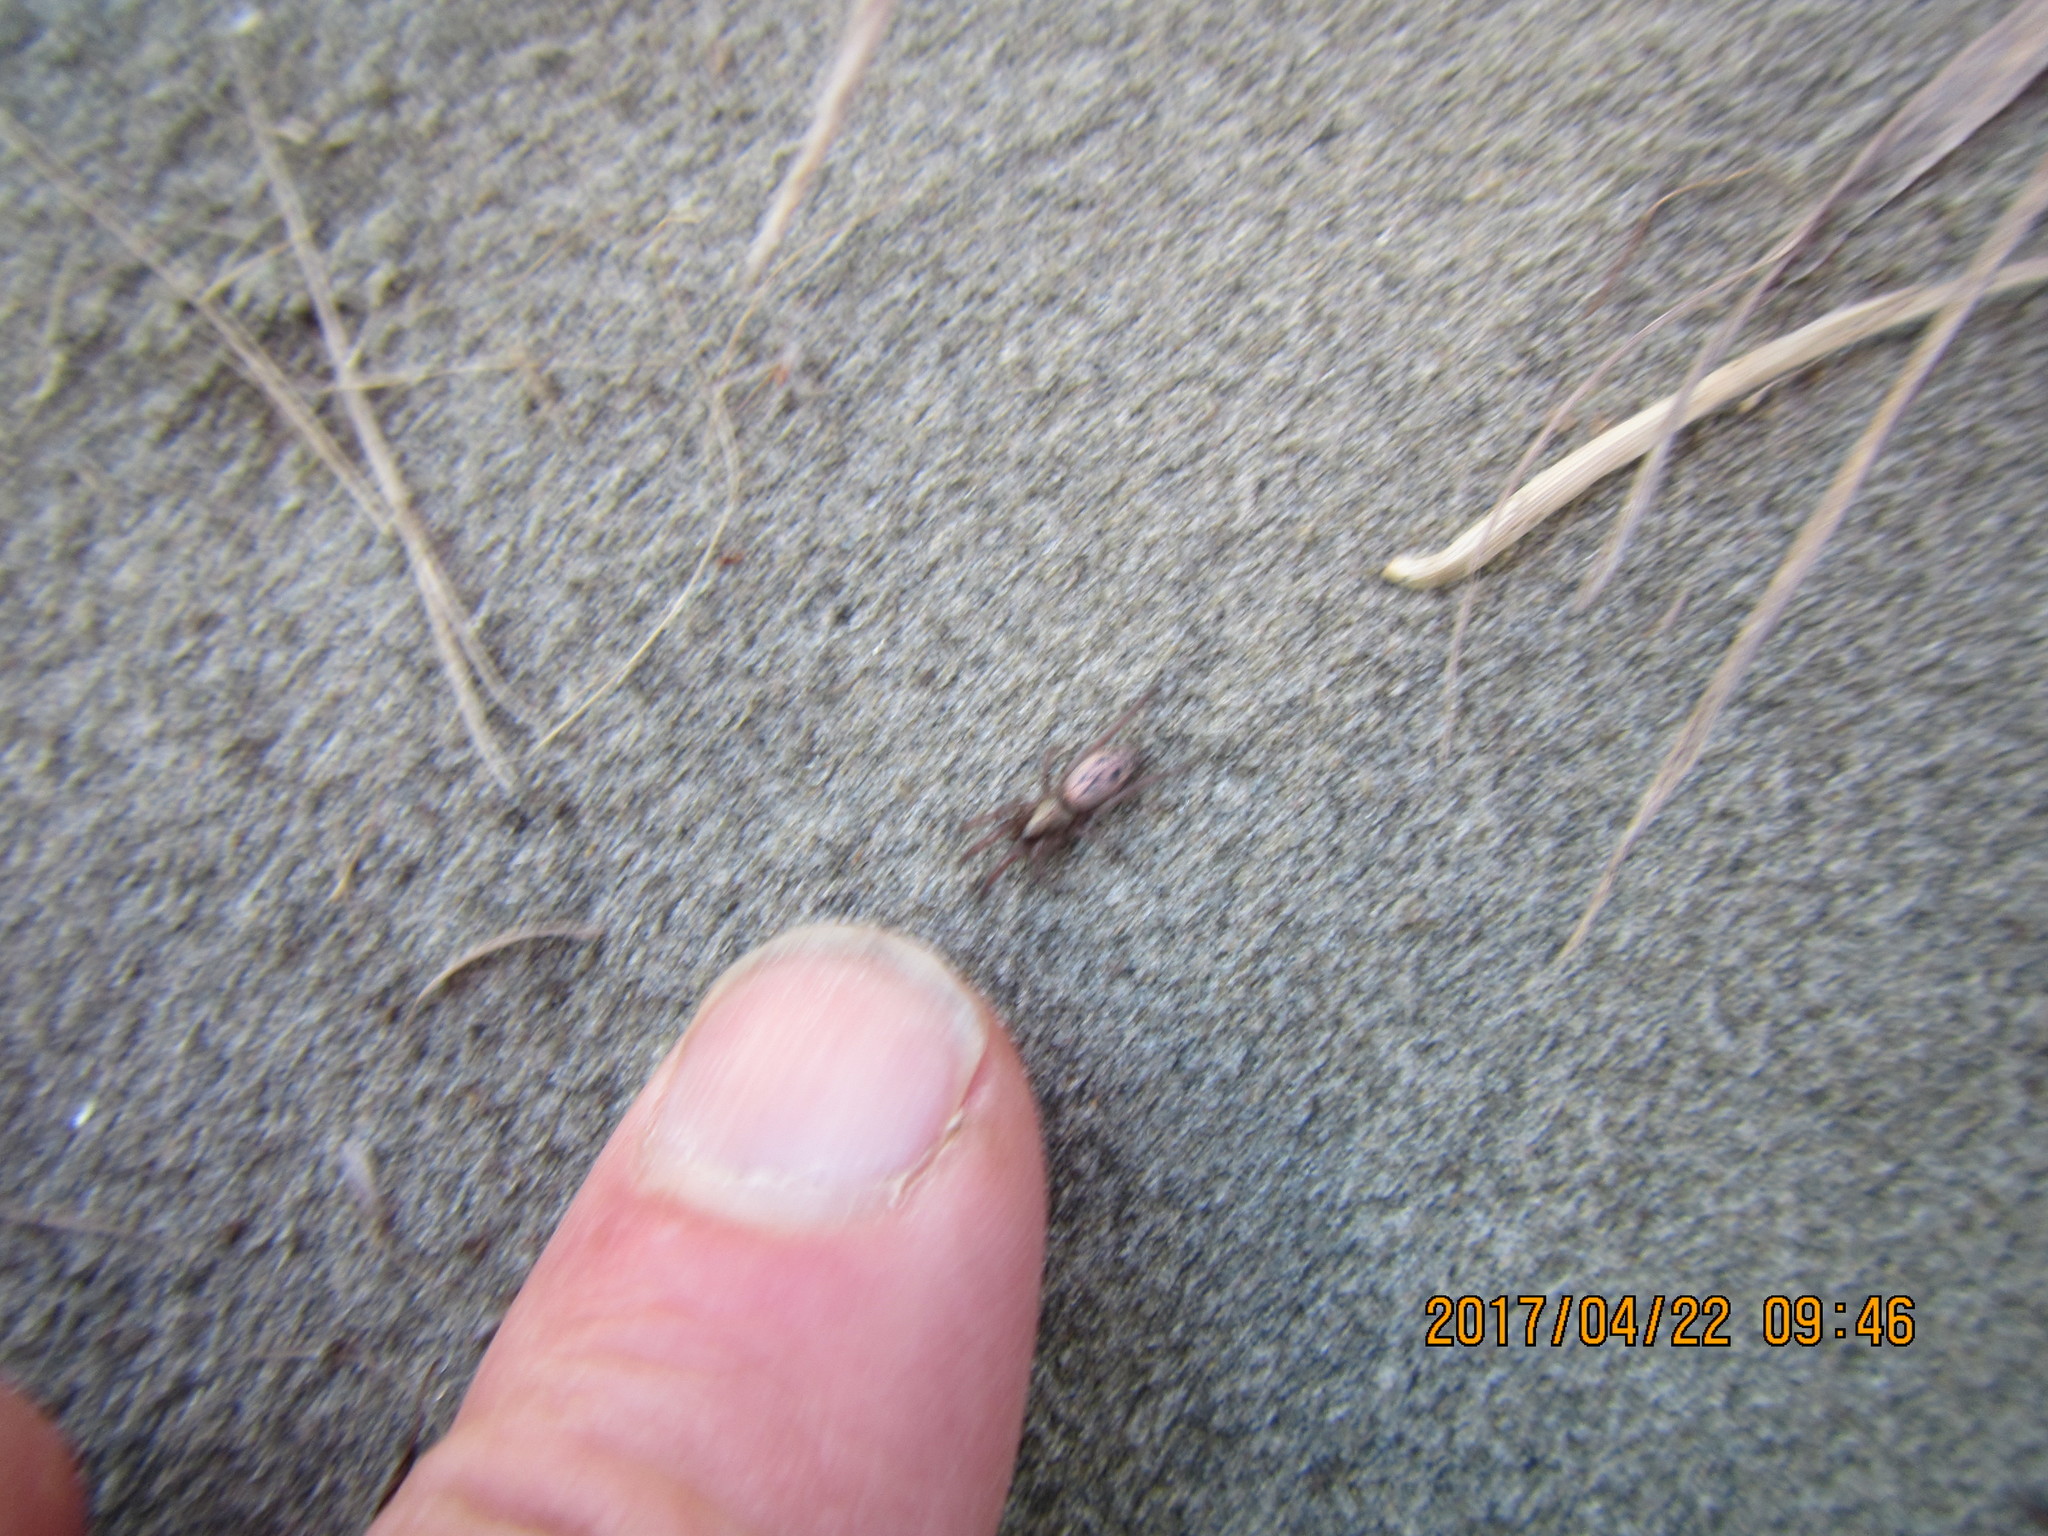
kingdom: Animalia
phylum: Arthropoda
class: Arachnida
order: Araneae
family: Gnaphosidae
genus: Scotophaeus
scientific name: Scotophaeus pretiosus
